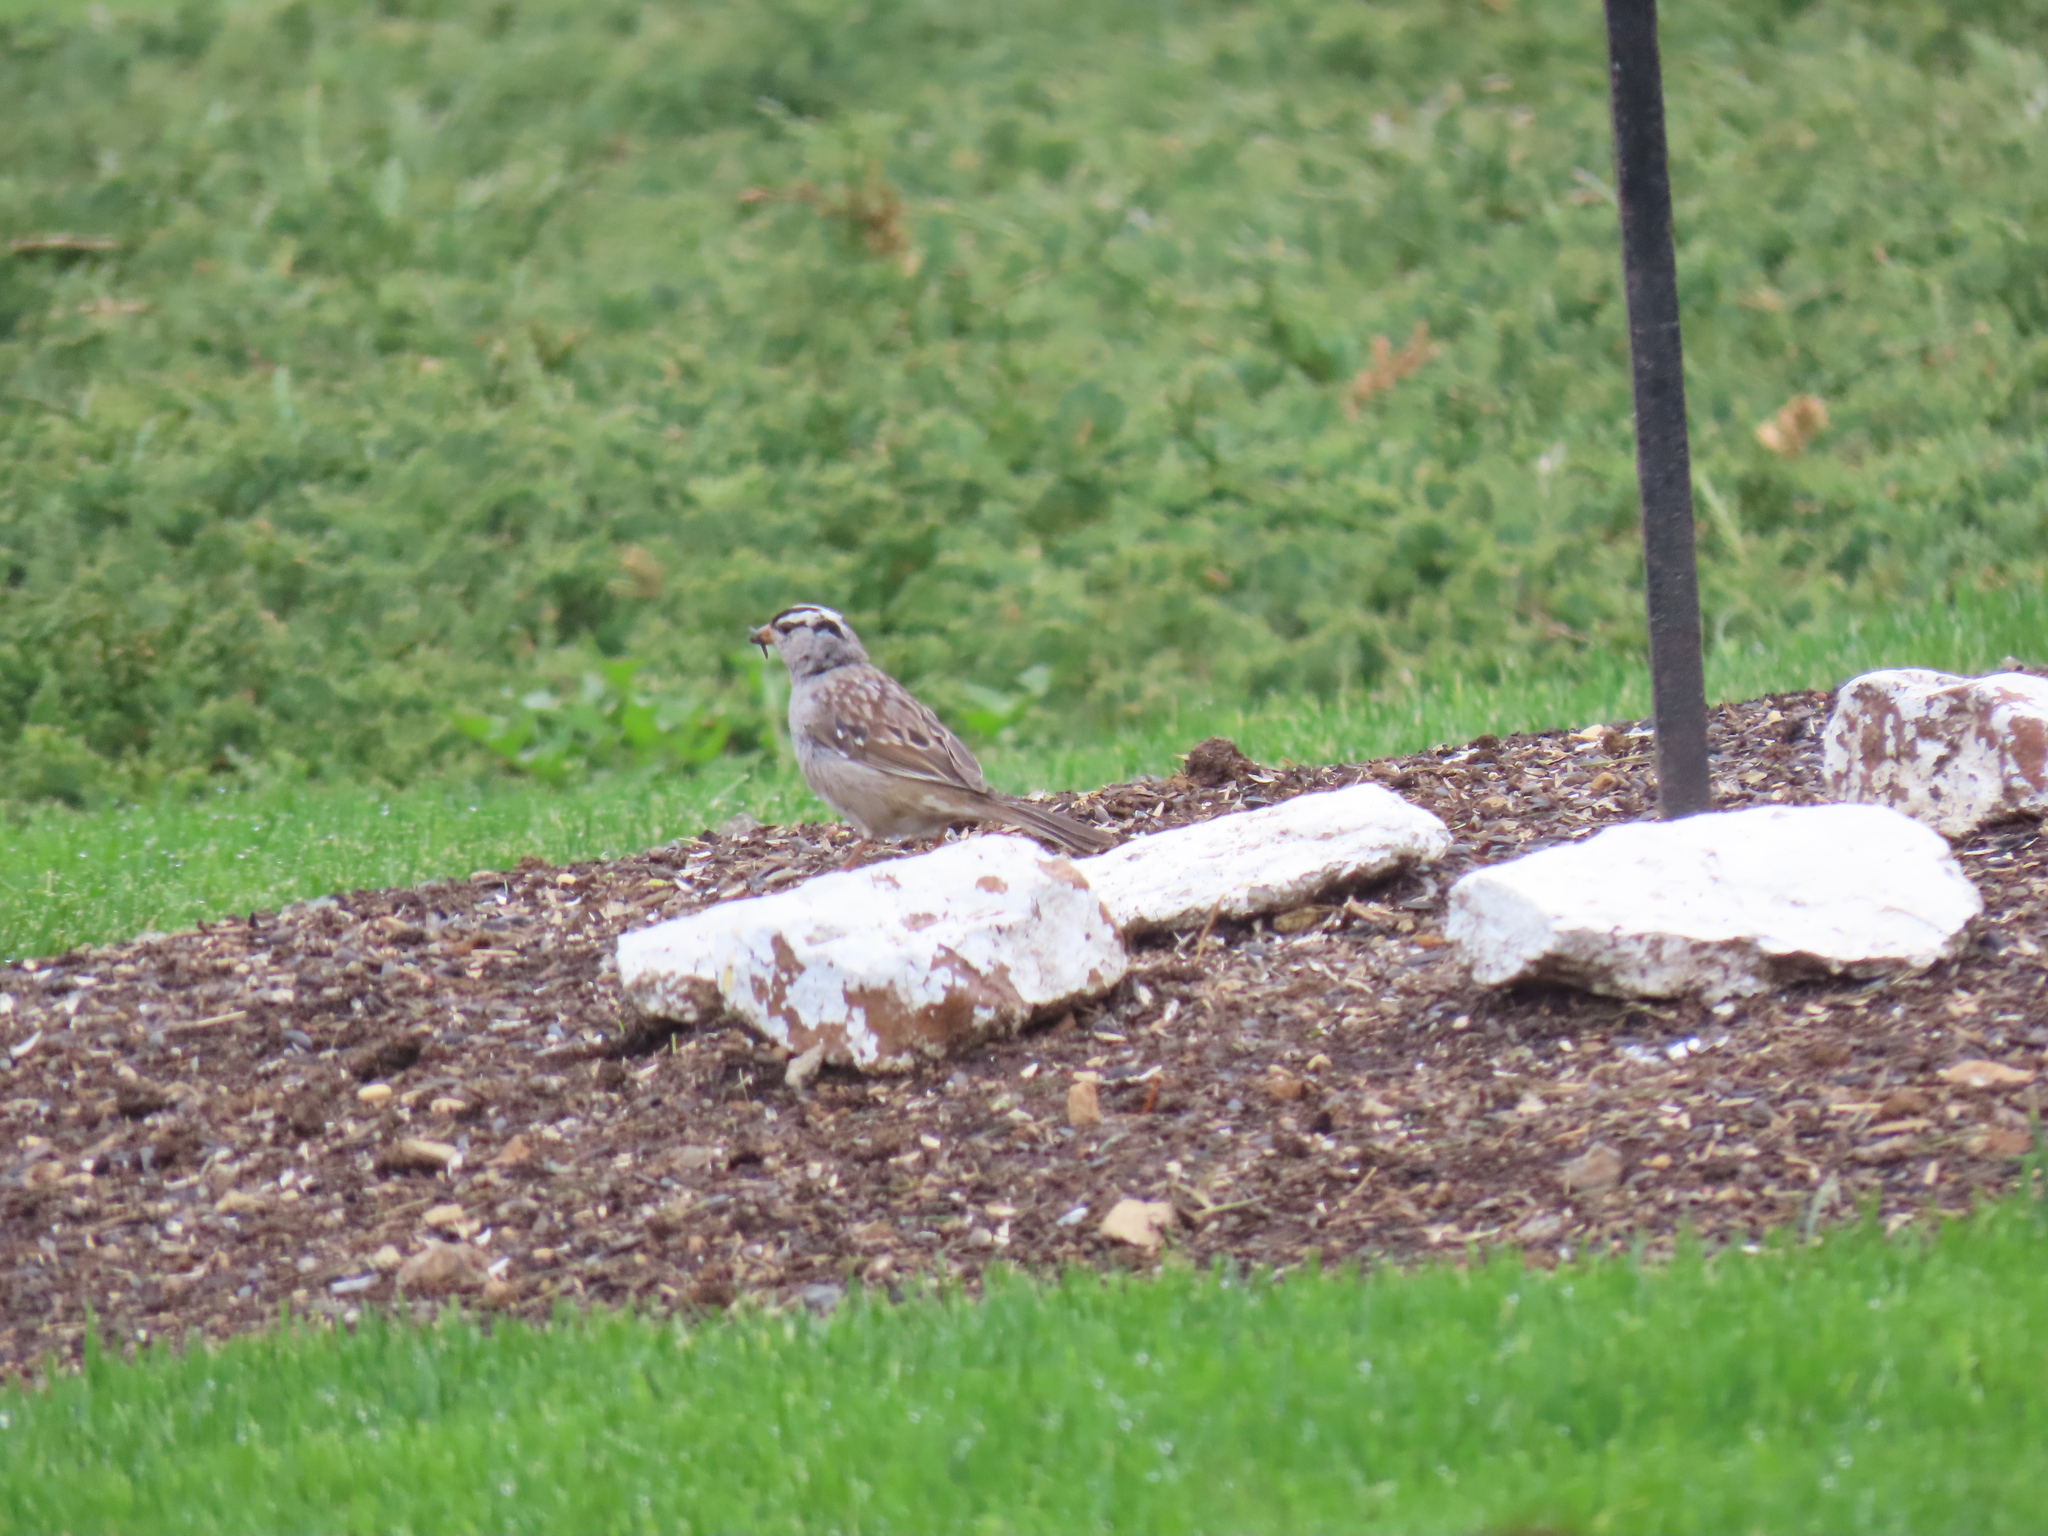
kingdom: Animalia
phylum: Chordata
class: Aves
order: Passeriformes
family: Passerellidae
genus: Zonotrichia
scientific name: Zonotrichia leucophrys
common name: White-crowned sparrow
